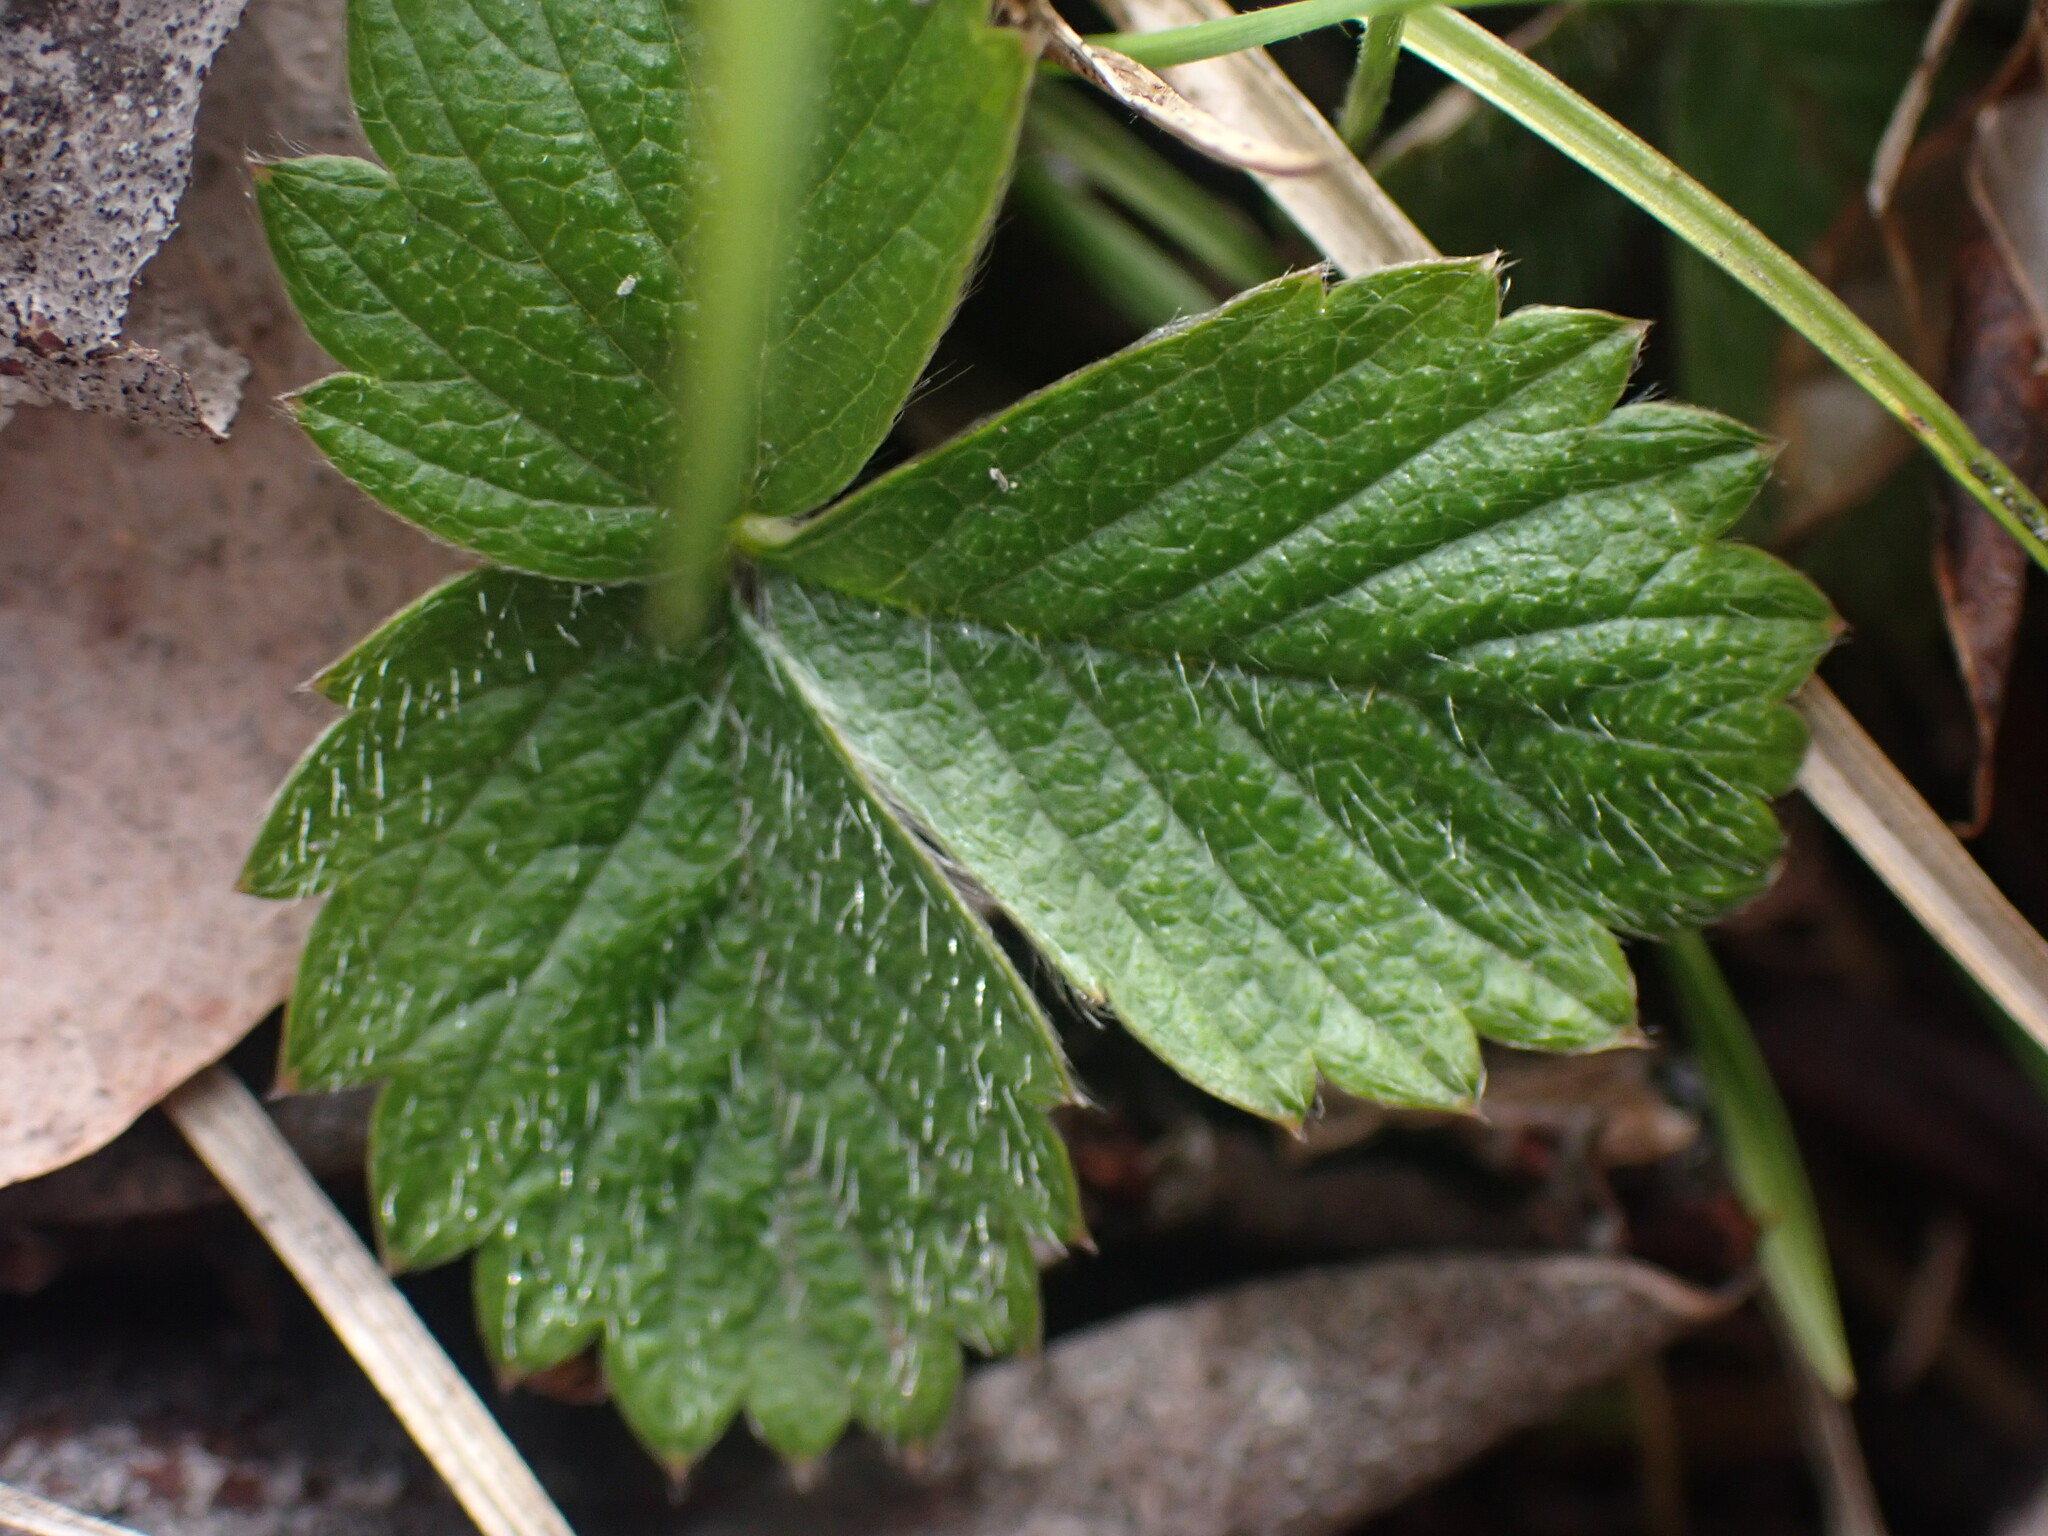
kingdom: Plantae
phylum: Tracheophyta
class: Magnoliopsida
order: Rosales
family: Rosaceae
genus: Fragaria
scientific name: Fragaria vesca
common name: Wild strawberry
